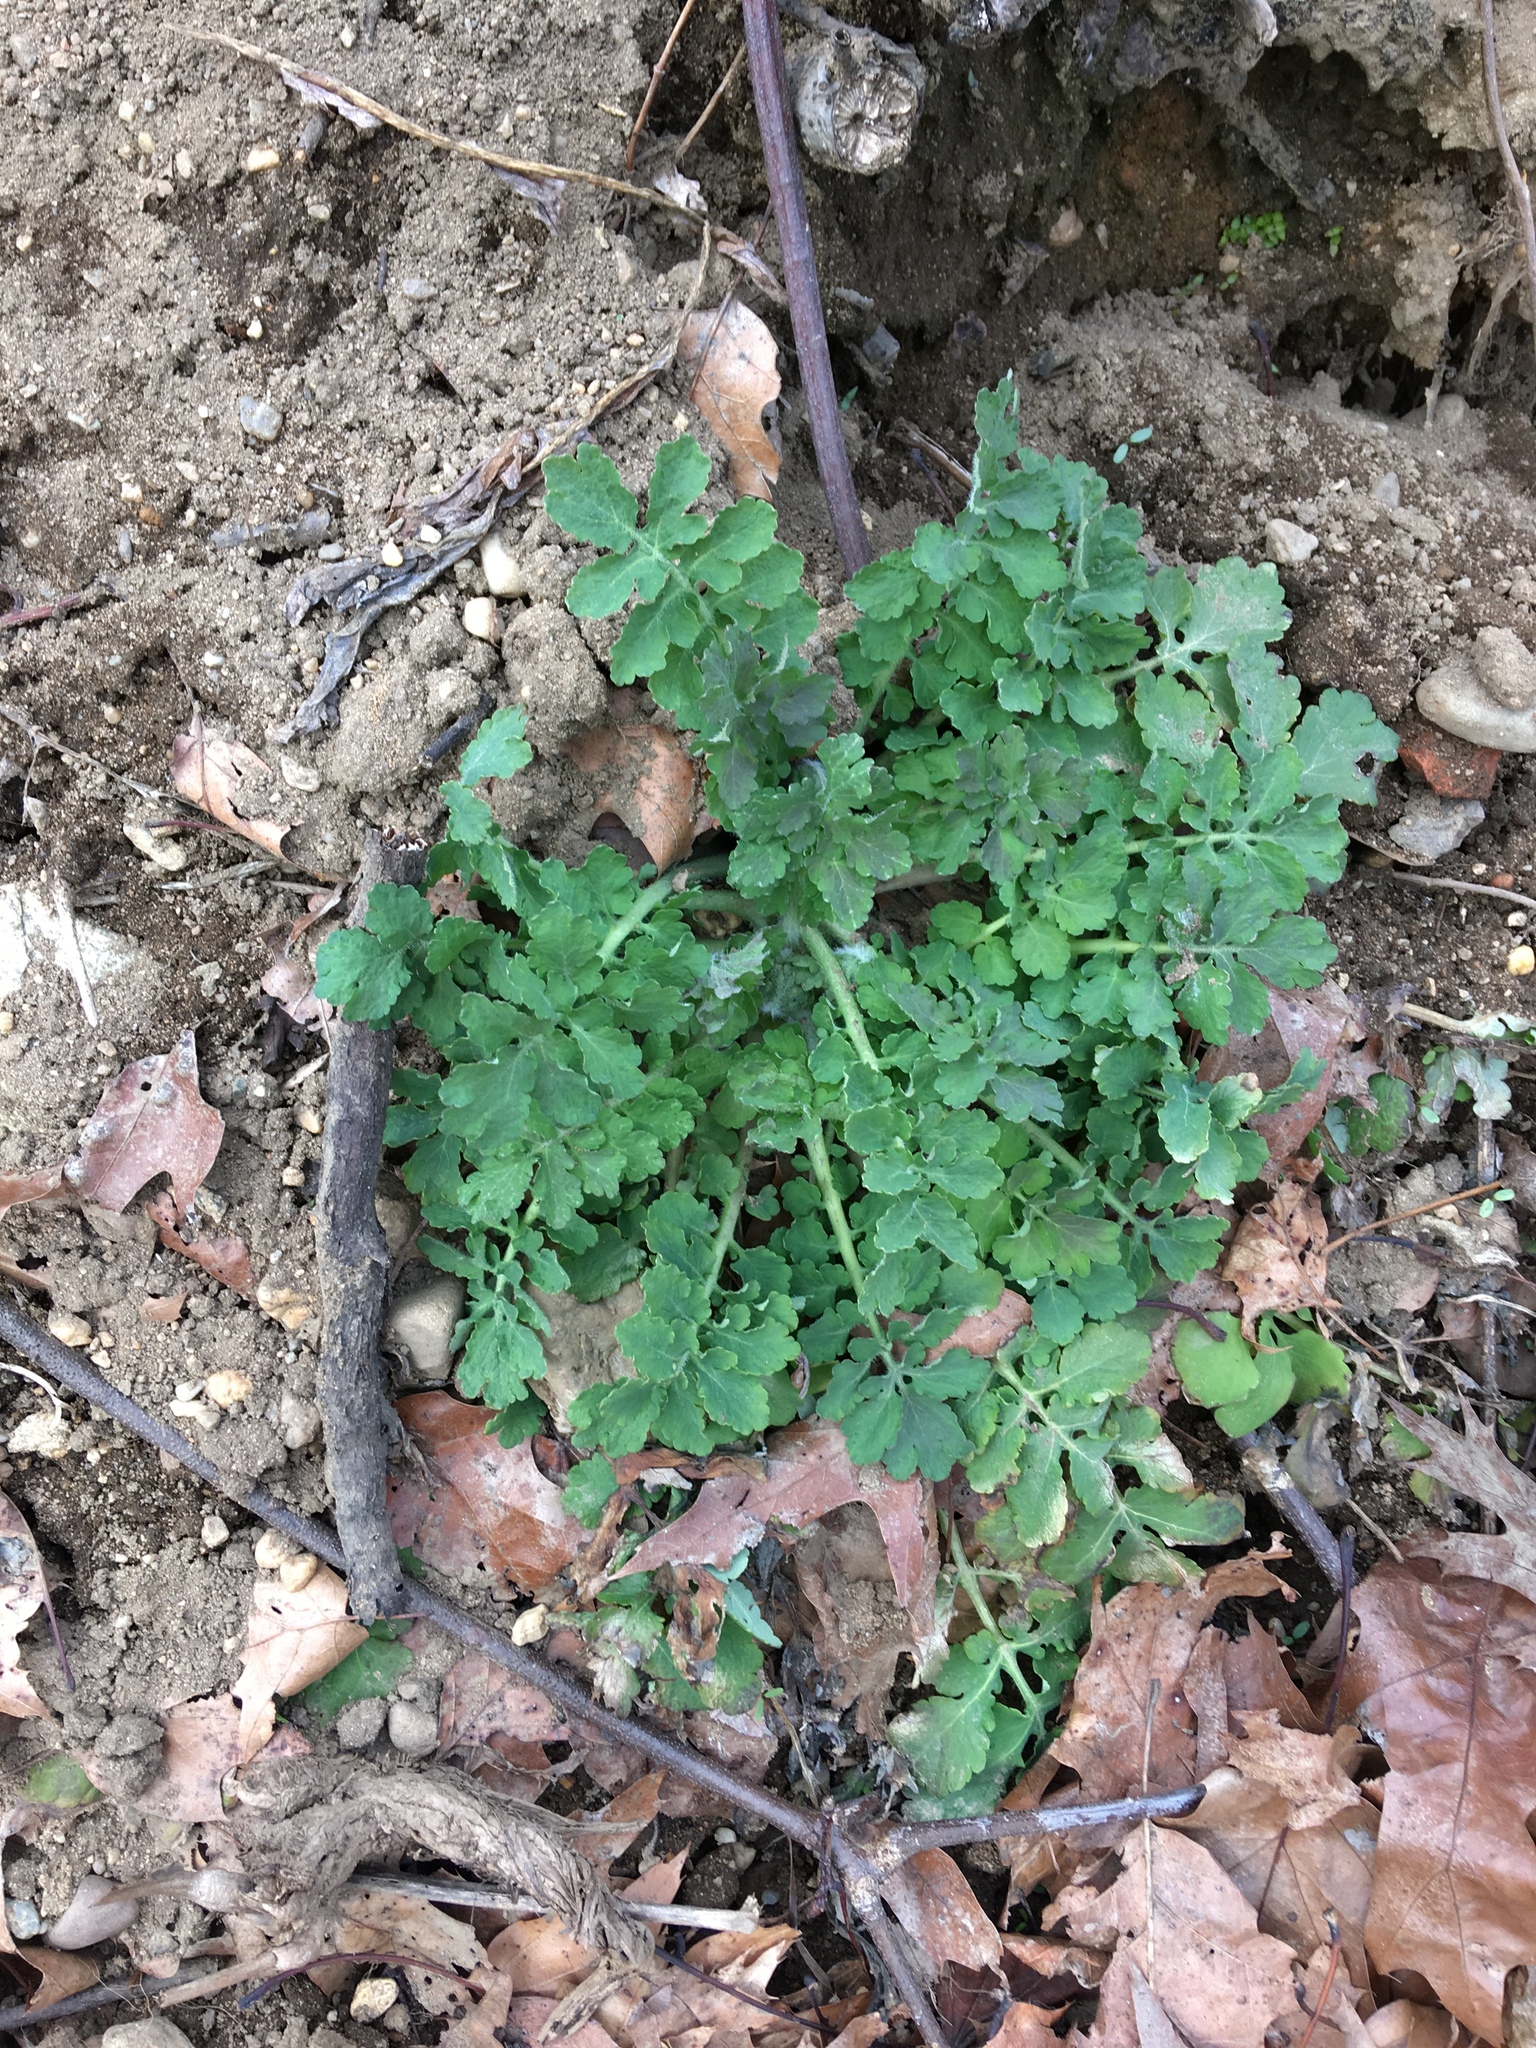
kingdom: Plantae
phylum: Tracheophyta
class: Magnoliopsida
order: Ranunculales
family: Papaveraceae
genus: Chelidonium
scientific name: Chelidonium majus
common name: Greater celandine
